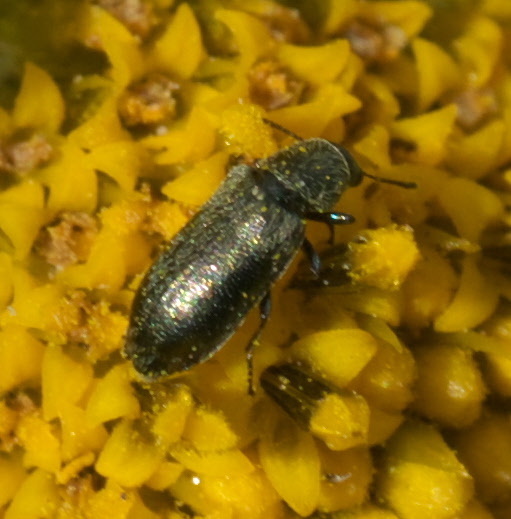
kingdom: Animalia
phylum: Arthropoda
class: Insecta
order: Coleoptera
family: Melyridae
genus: Listrus
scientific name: Listrus senilis
